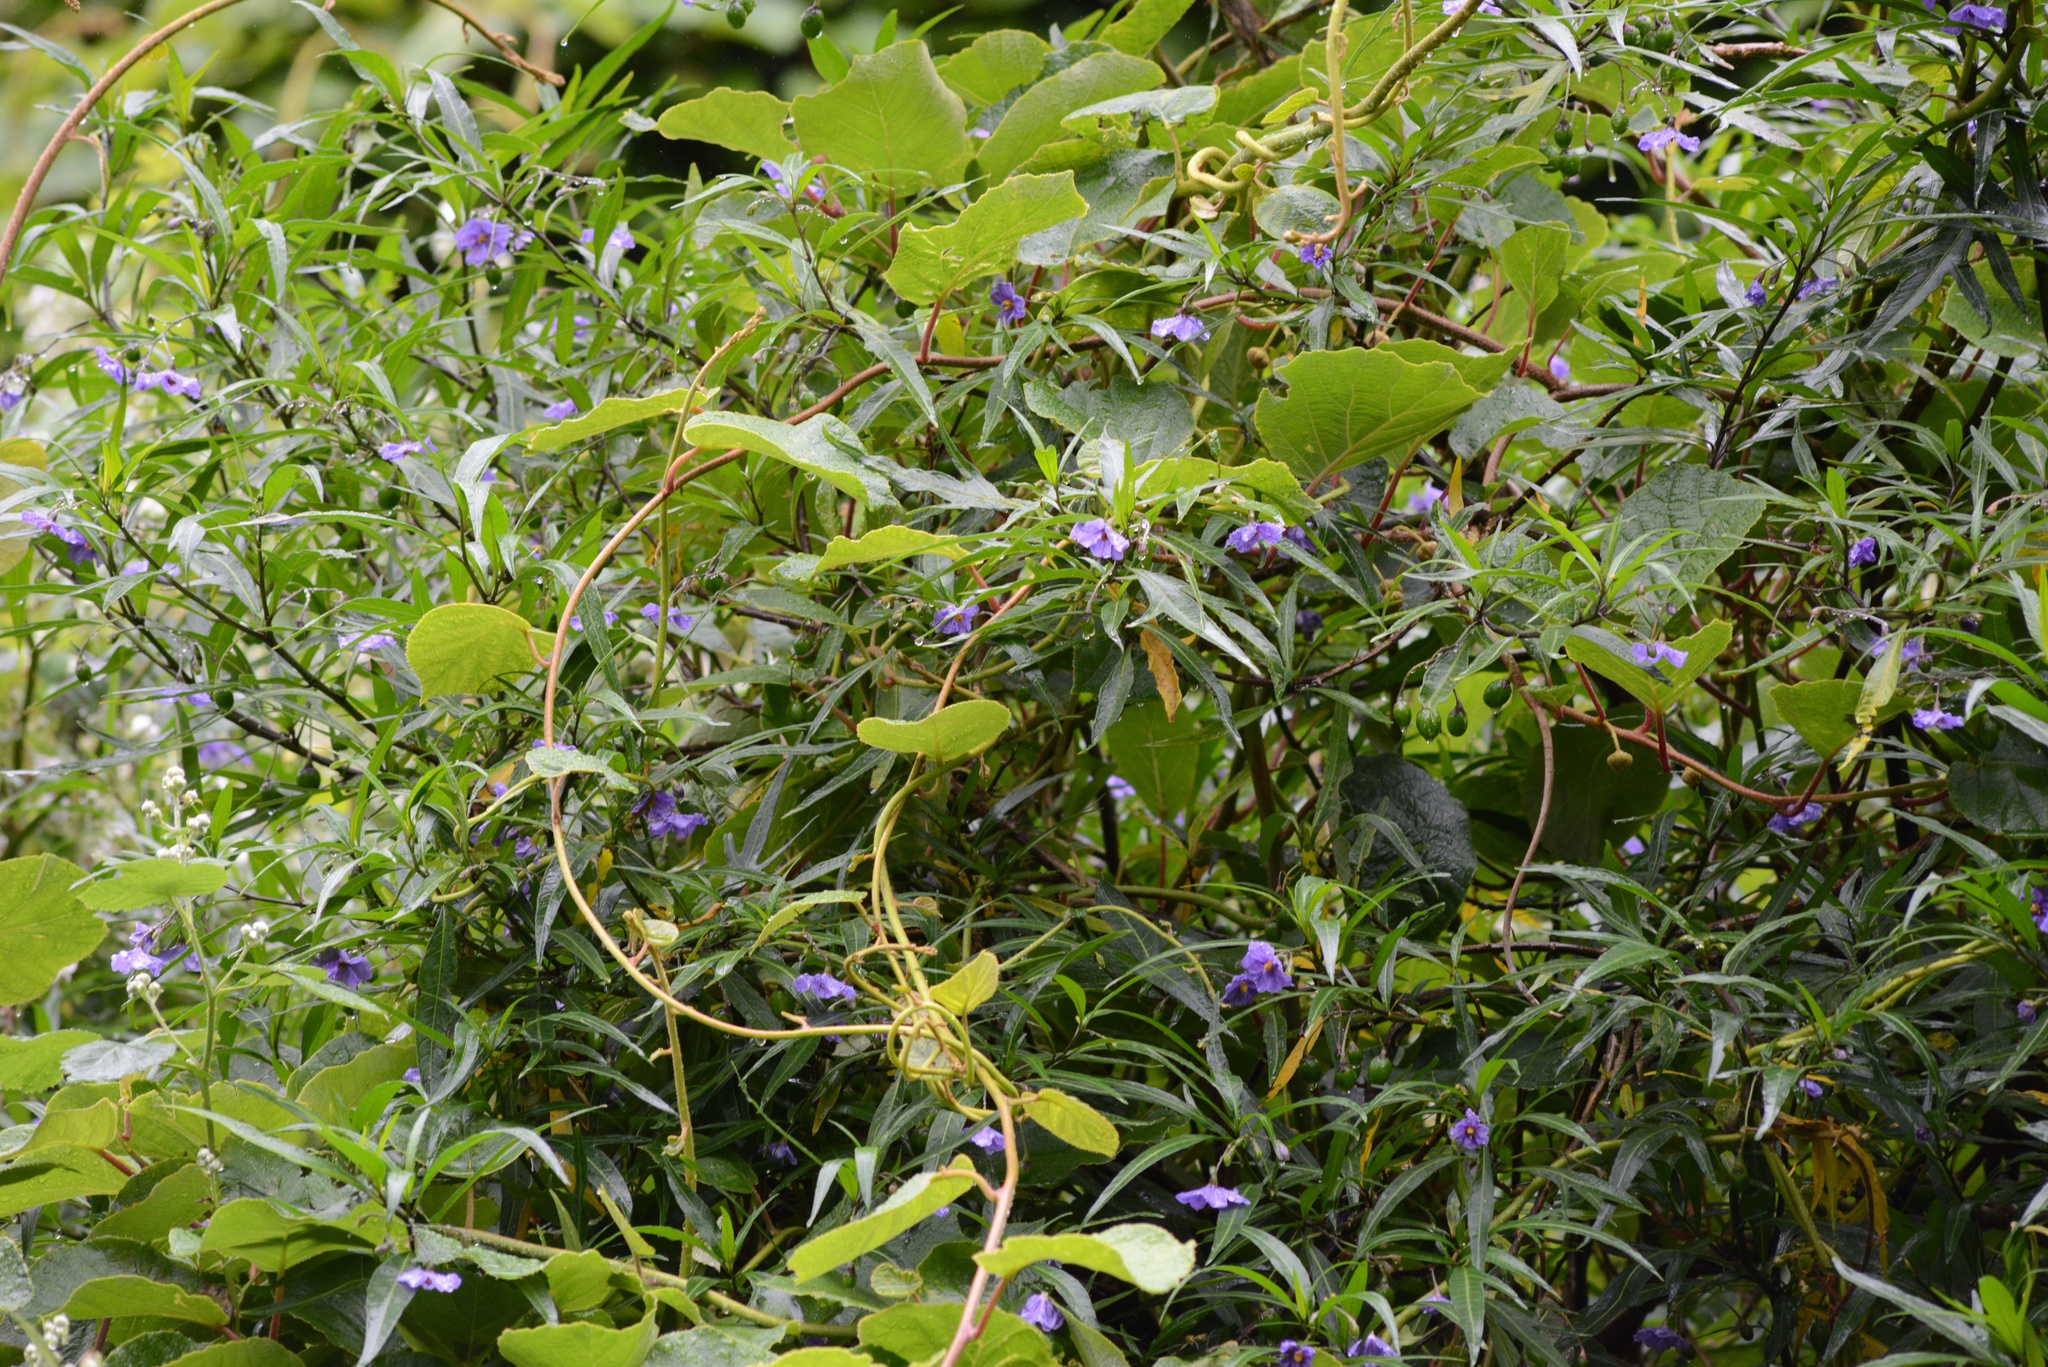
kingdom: Plantae
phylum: Tracheophyta
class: Magnoliopsida
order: Solanales
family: Solanaceae
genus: Solanum
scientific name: Solanum laciniatum
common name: Kangaroo-apple
